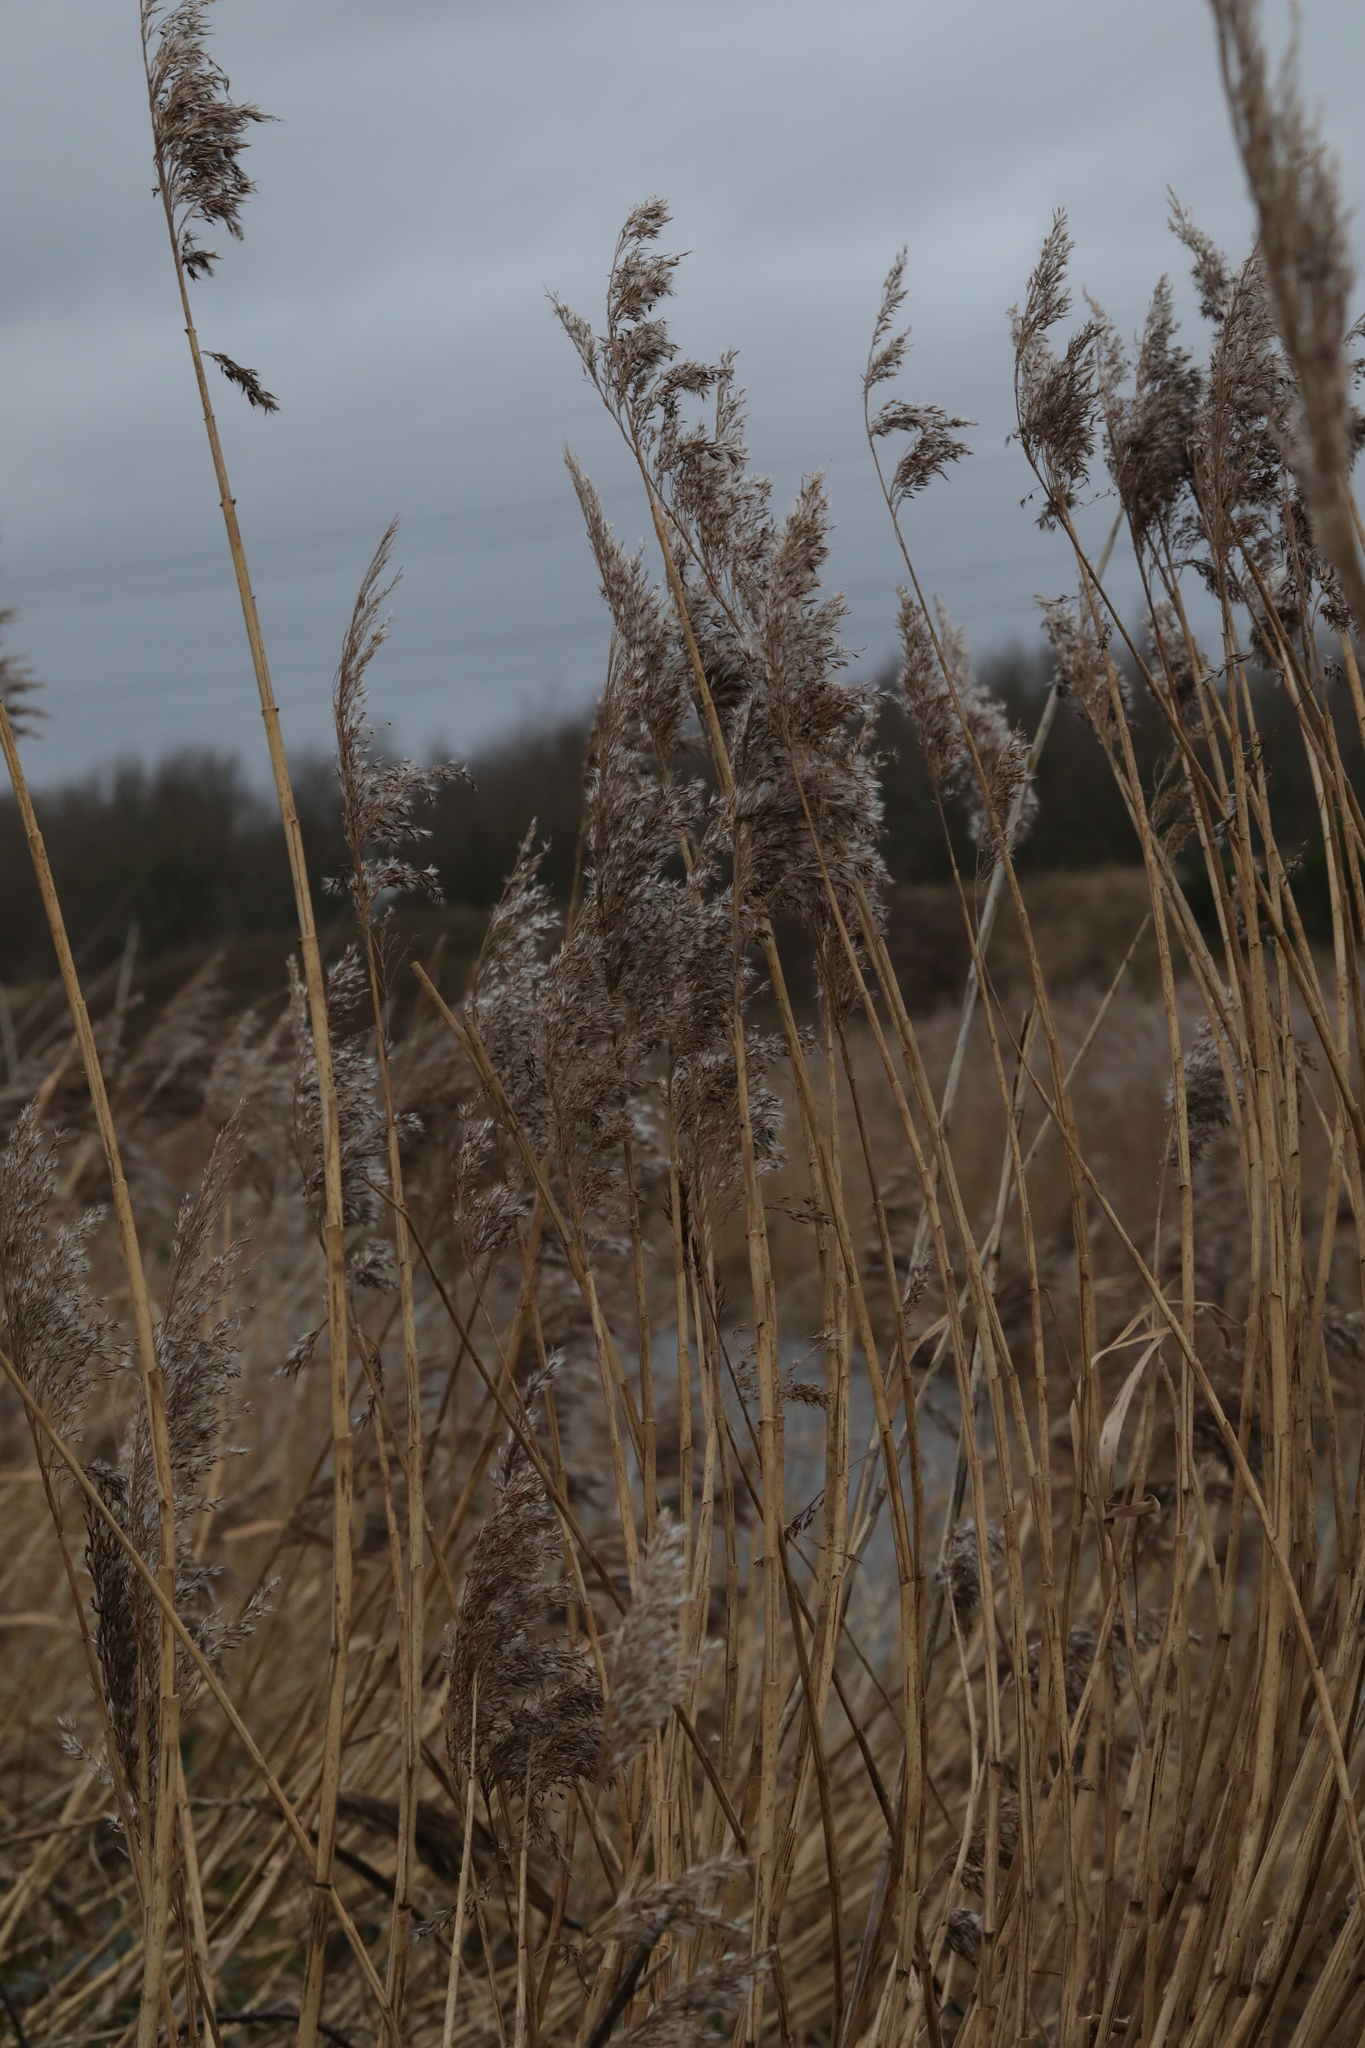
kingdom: Plantae
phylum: Tracheophyta
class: Liliopsida
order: Poales
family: Poaceae
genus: Phragmites
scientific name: Phragmites australis
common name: Common reed
